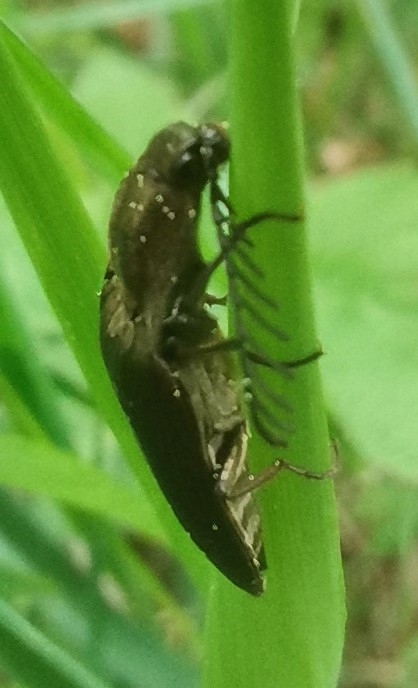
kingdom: Animalia
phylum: Arthropoda
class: Insecta
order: Coleoptera
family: Elateridae
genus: Ctenicera
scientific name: Ctenicera pectinicornis
